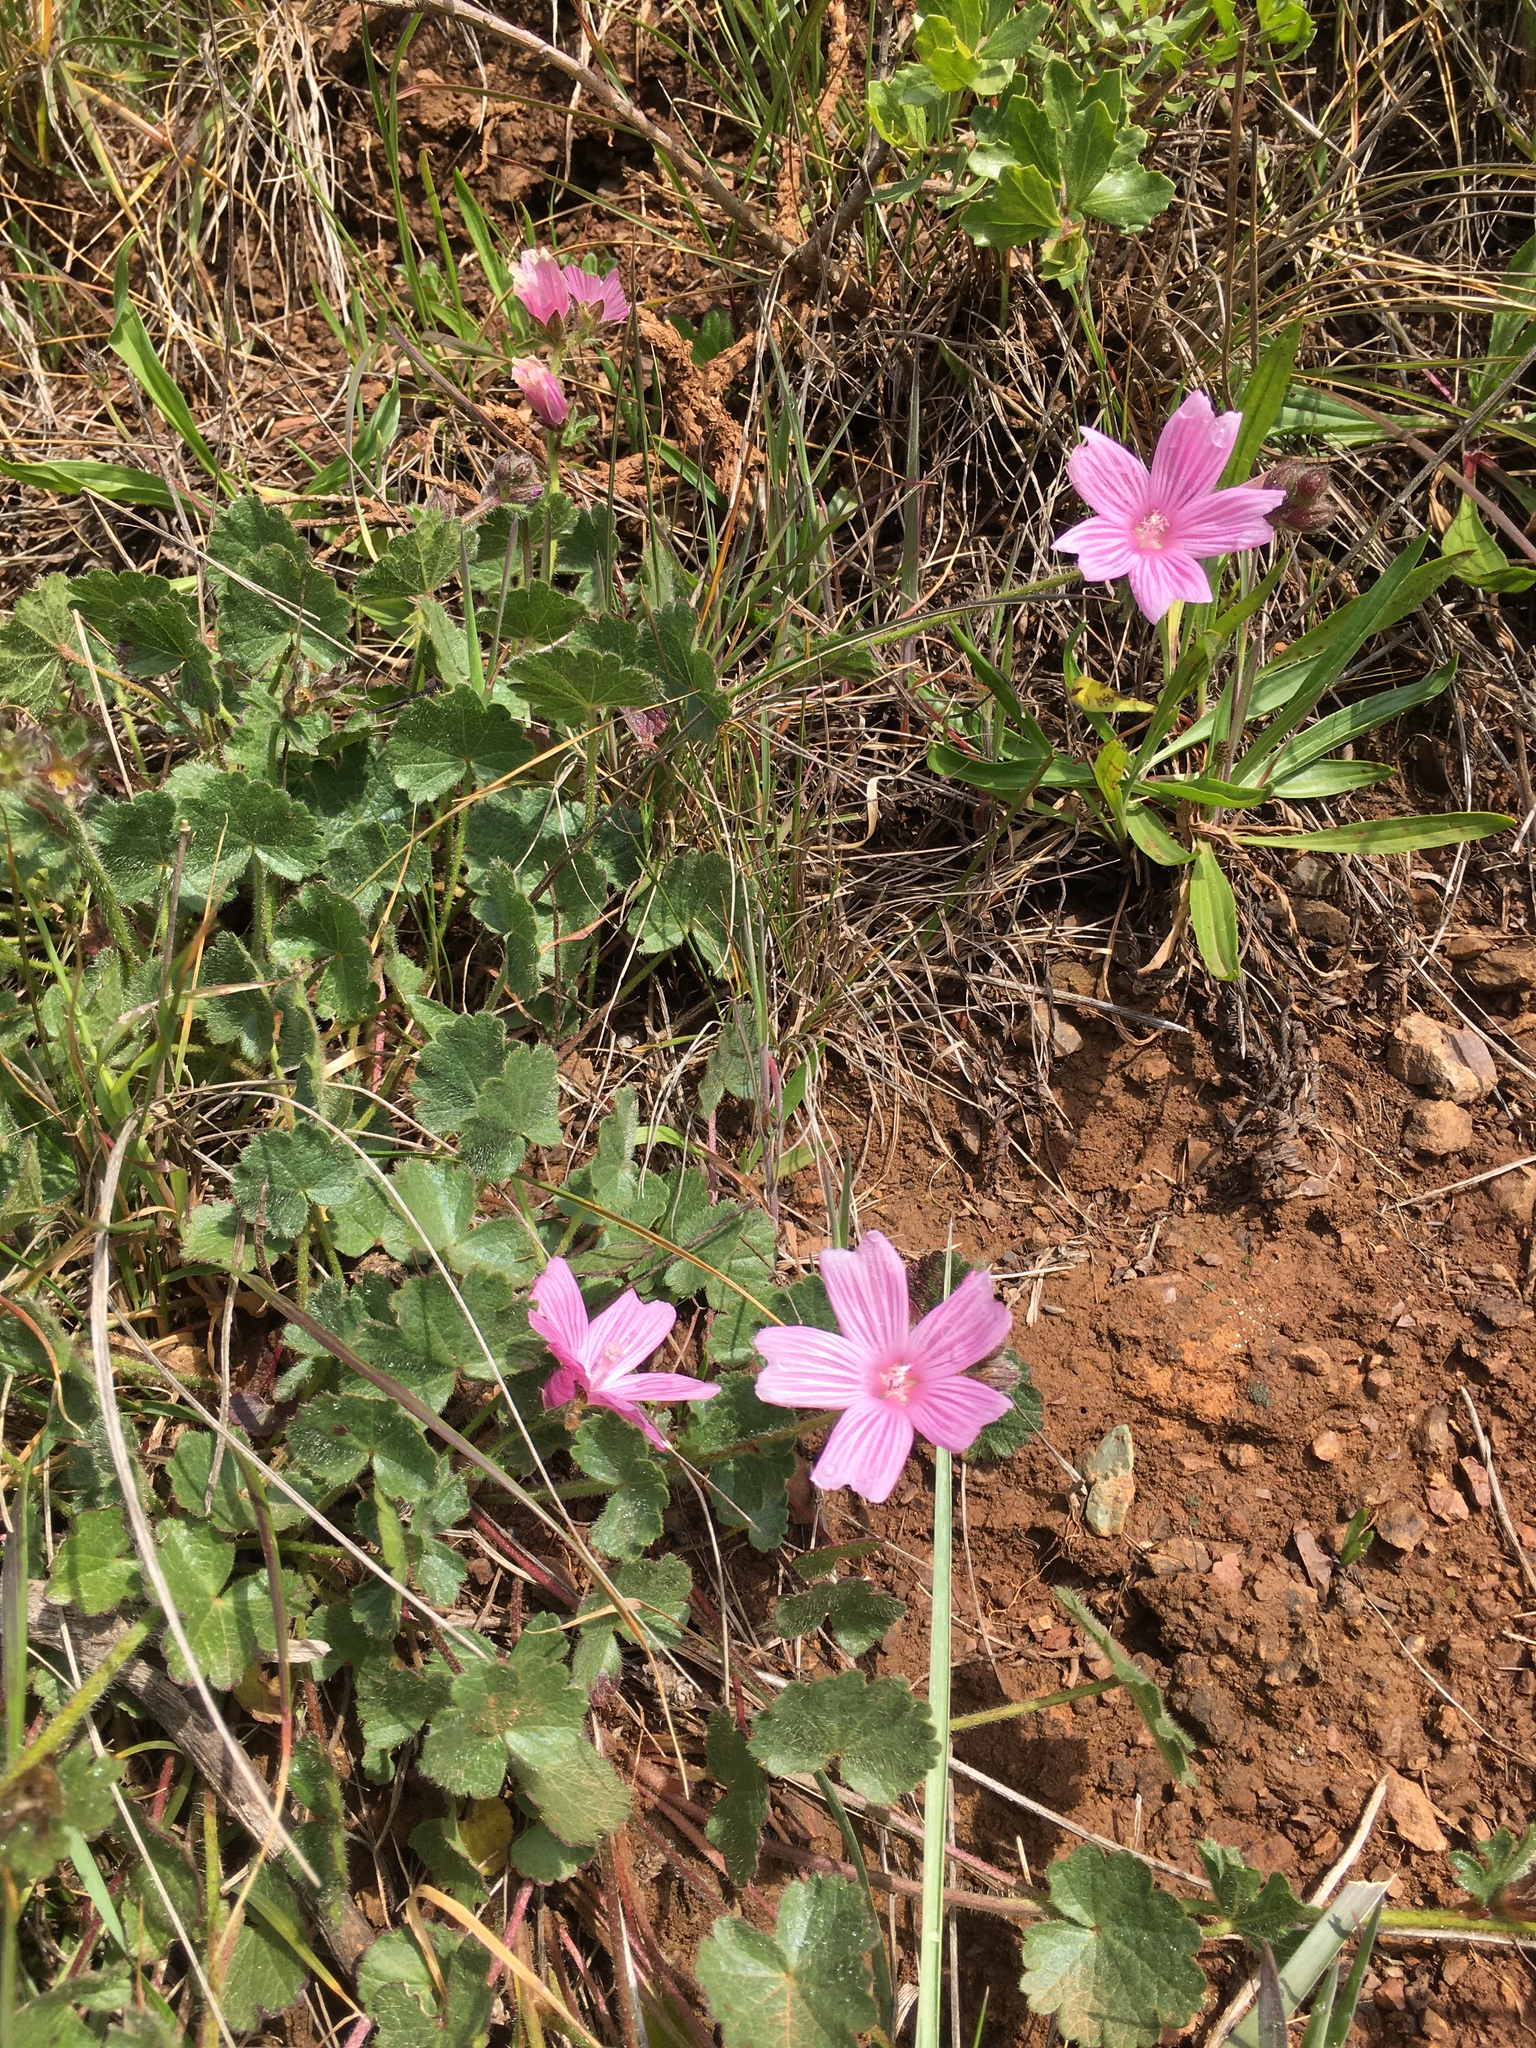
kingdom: Plantae
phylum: Tracheophyta
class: Magnoliopsida
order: Malvales
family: Malvaceae
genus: Sidalcea
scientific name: Sidalcea malviflora
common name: Greek mallow
